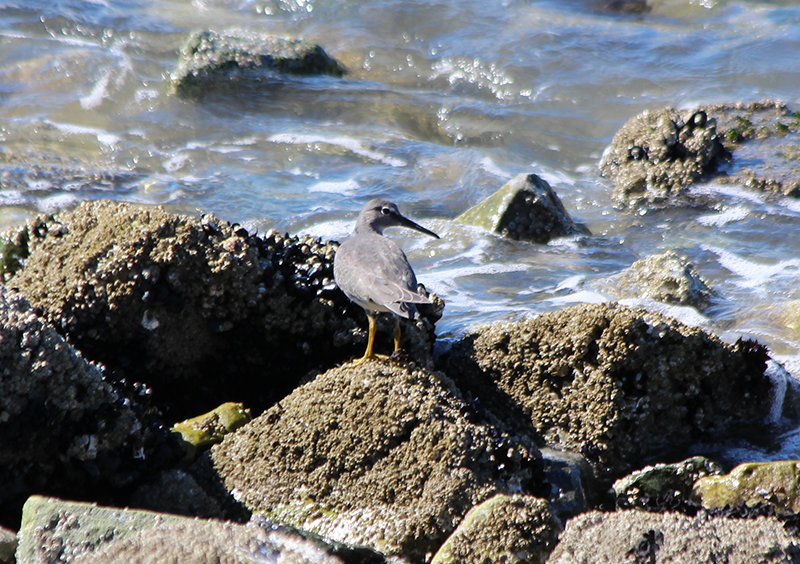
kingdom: Animalia
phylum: Chordata
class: Aves
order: Charadriiformes
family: Scolopacidae
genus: Tringa
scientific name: Tringa incana
